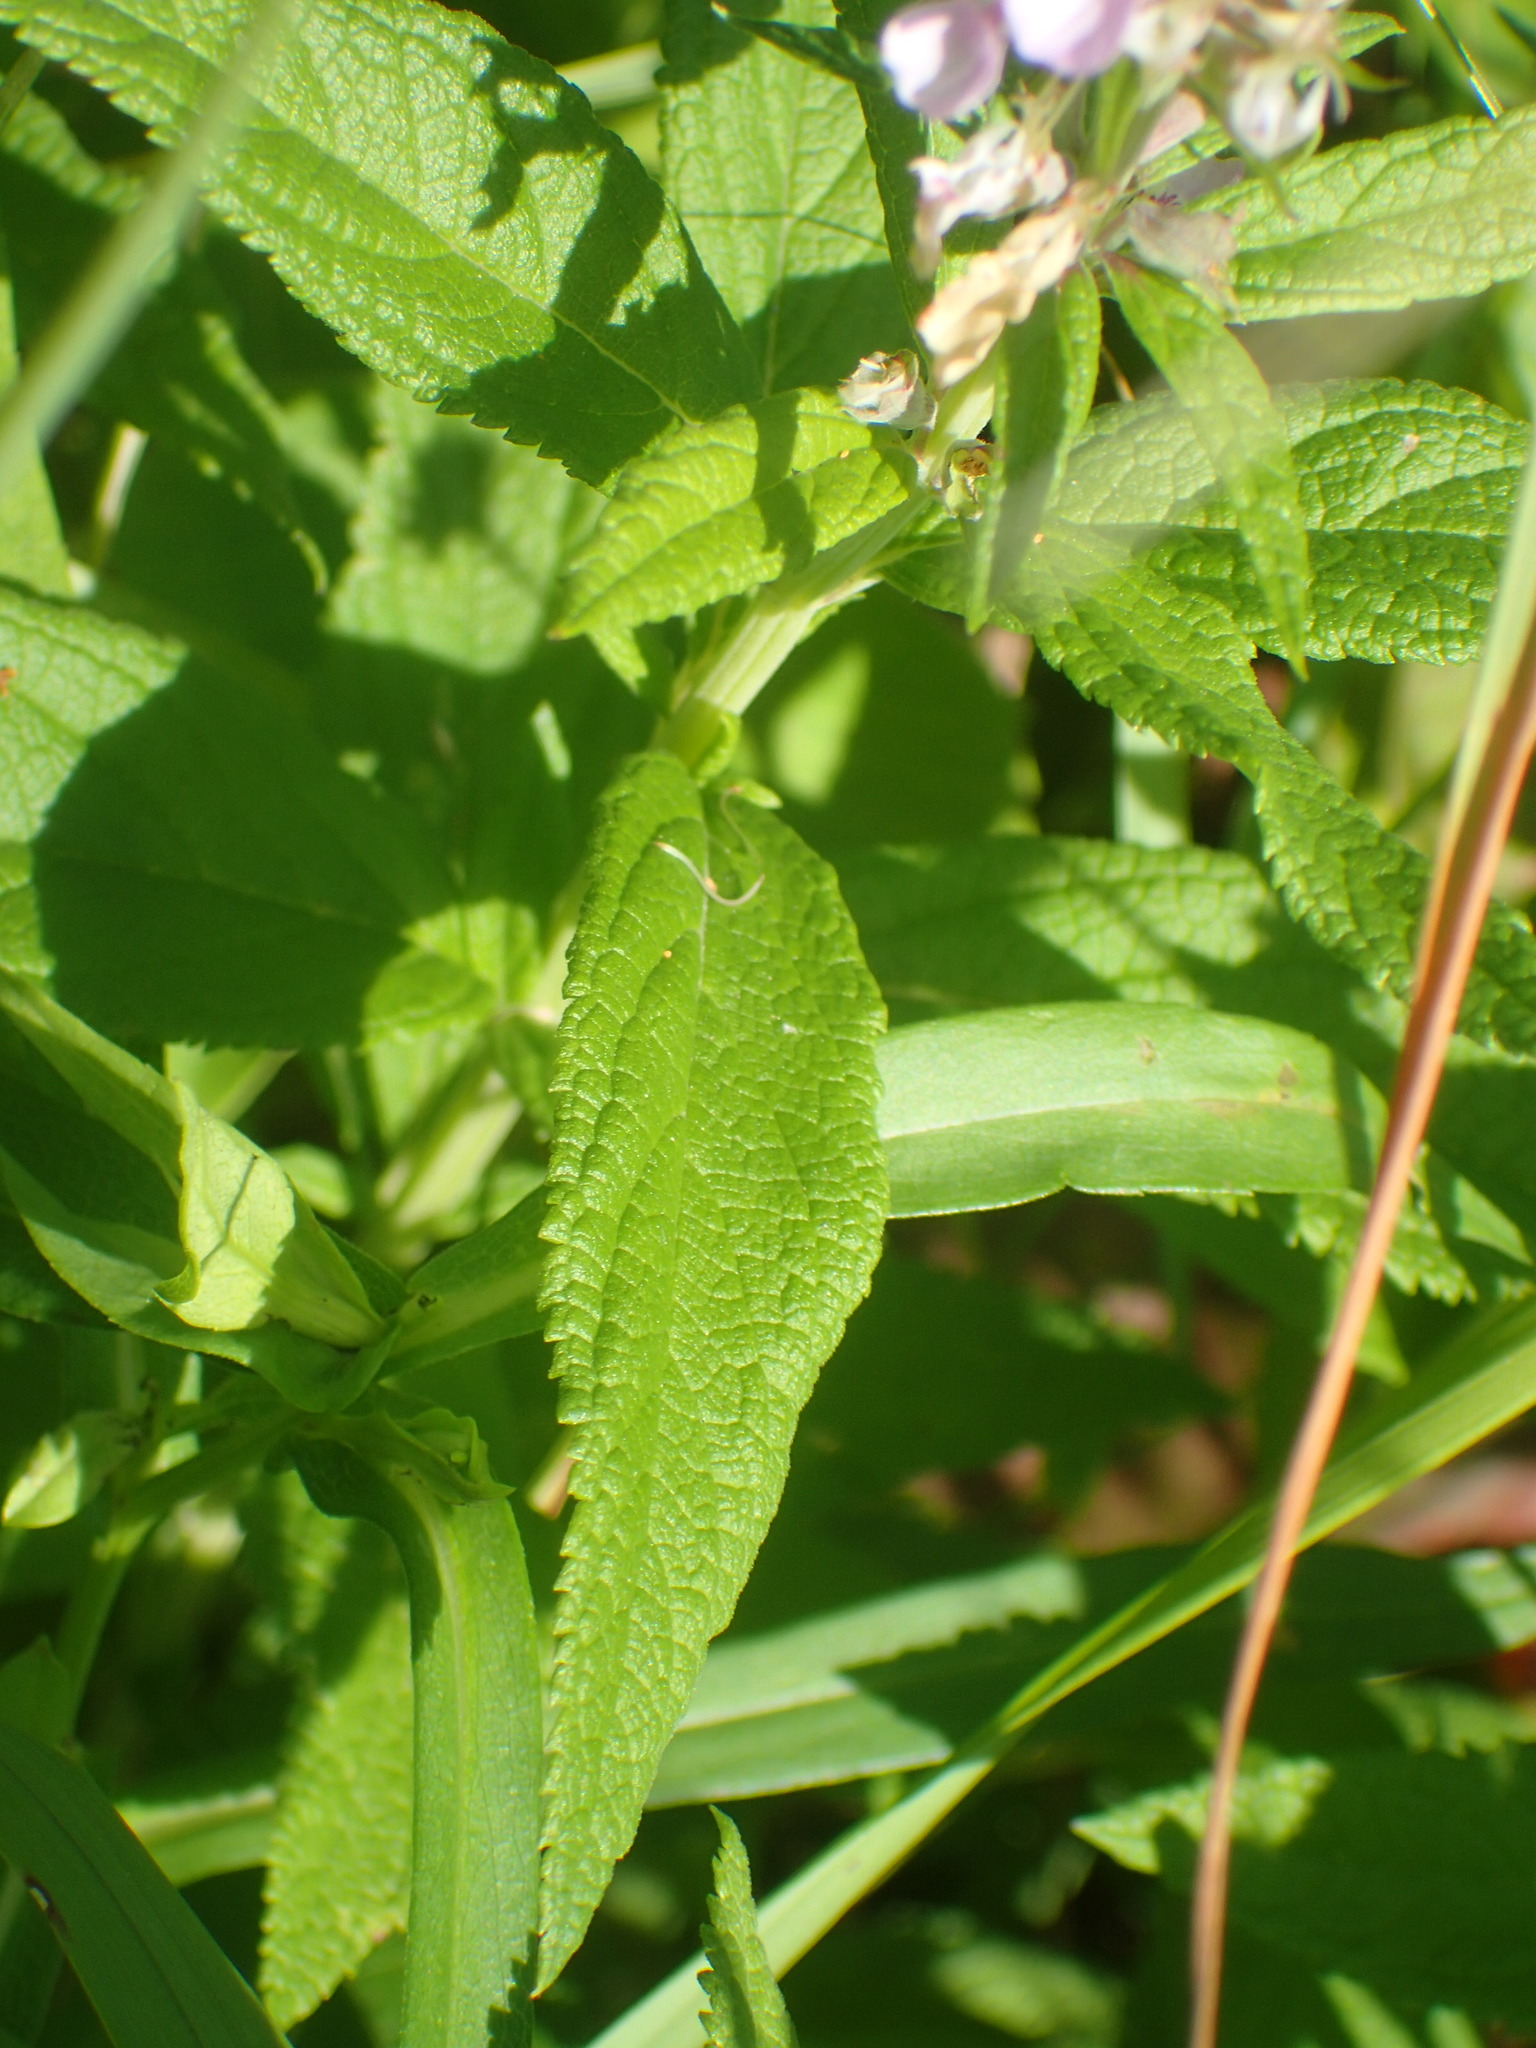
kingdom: Plantae
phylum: Tracheophyta
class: Magnoliopsida
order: Lamiales
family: Lamiaceae
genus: Teucrium
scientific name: Teucrium canadense
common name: American germander
